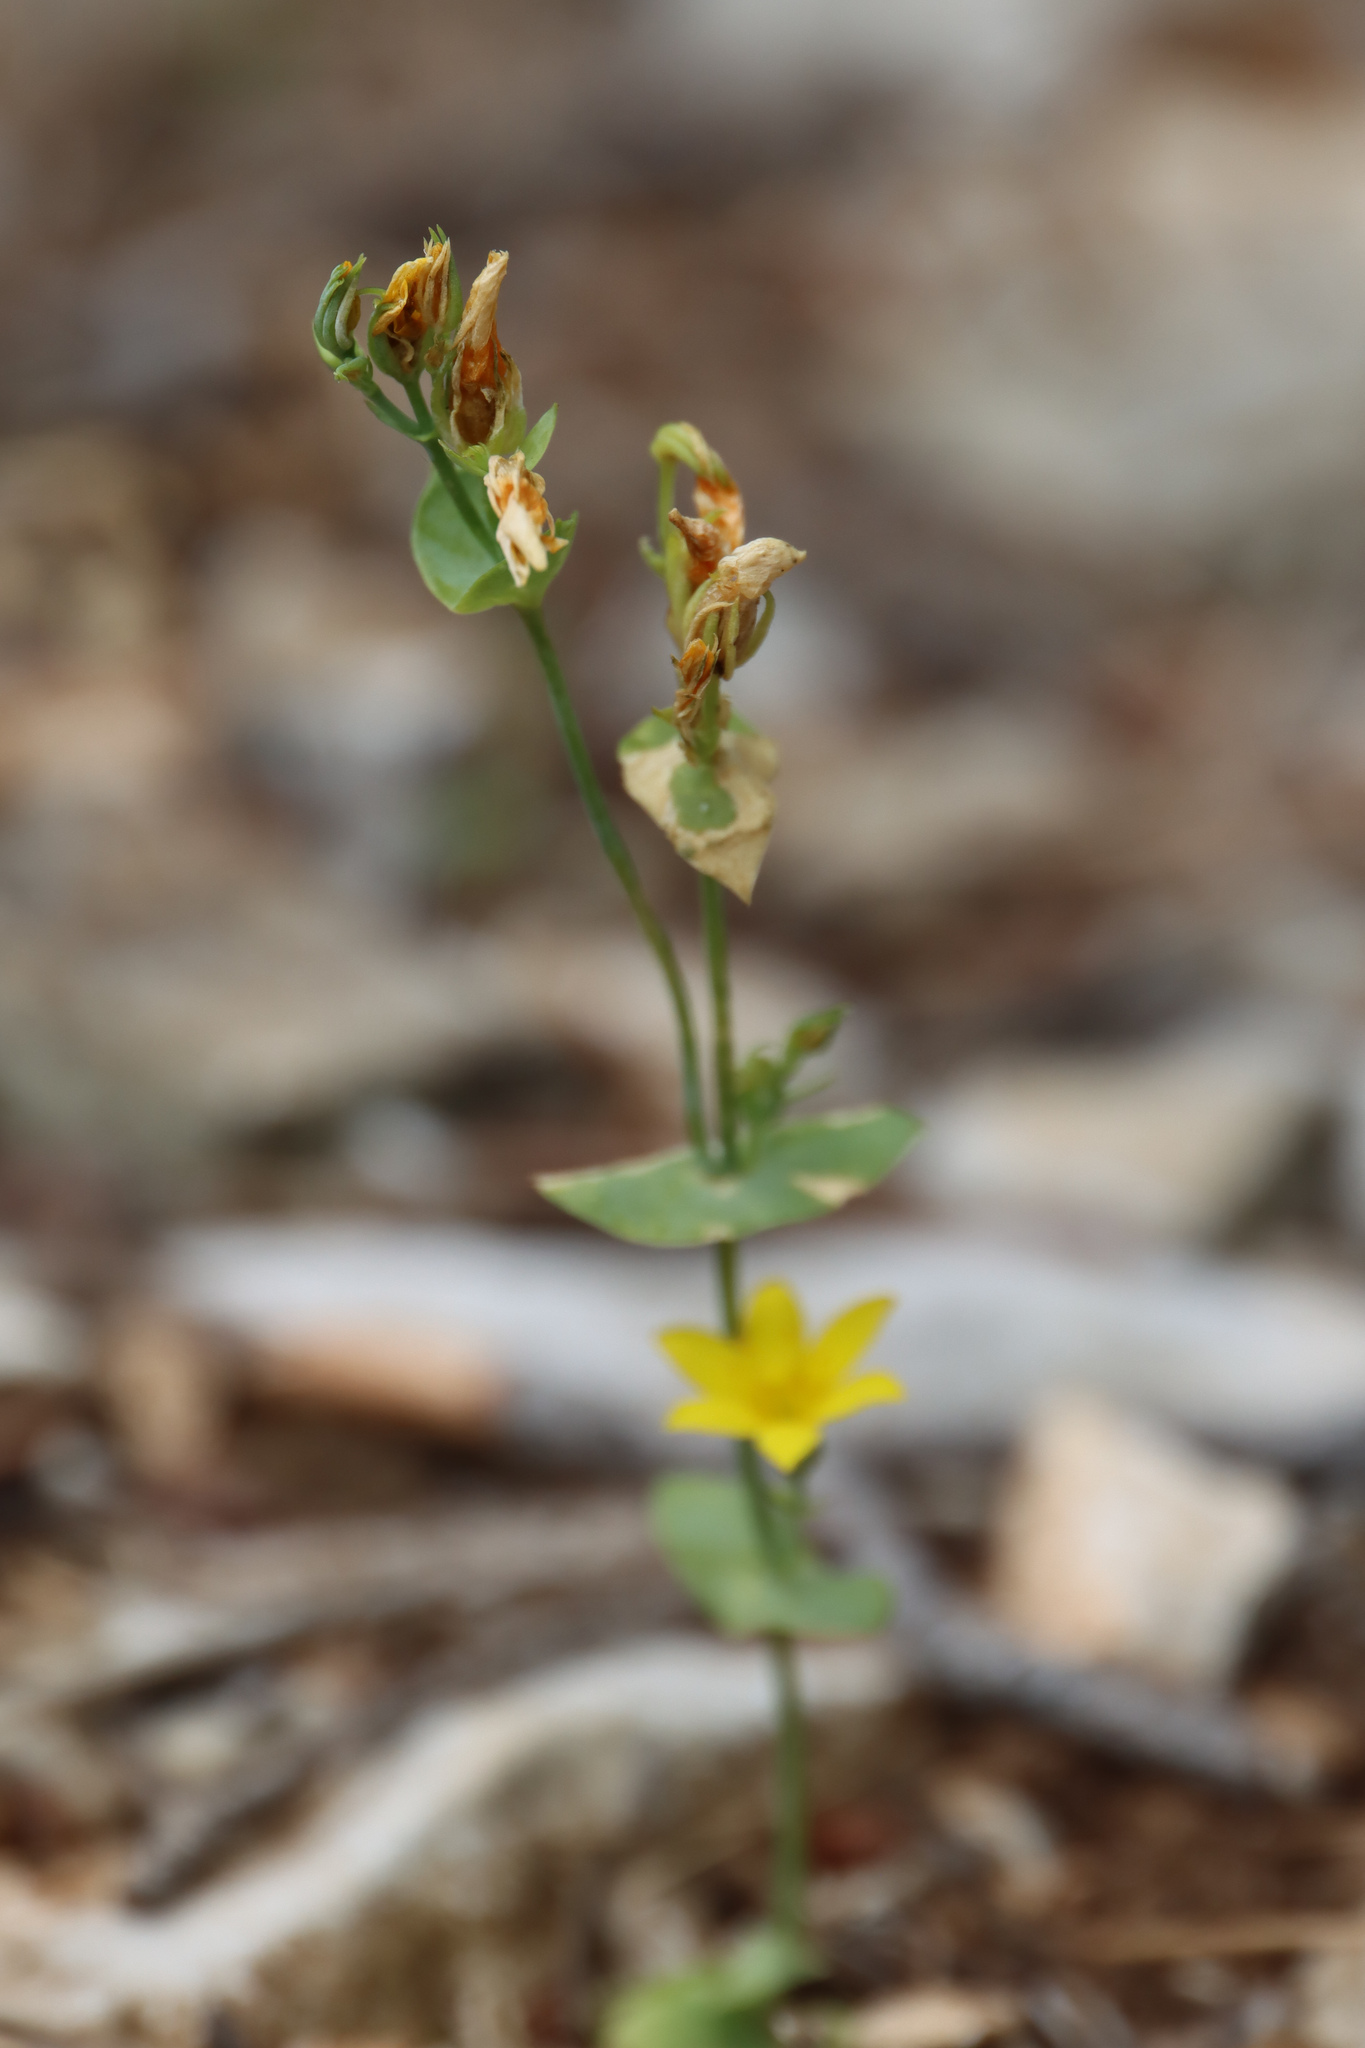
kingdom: Plantae
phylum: Tracheophyta
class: Magnoliopsida
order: Gentianales
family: Gentianaceae
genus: Blackstonia
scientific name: Blackstonia perfoliata
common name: Yellow-wort
